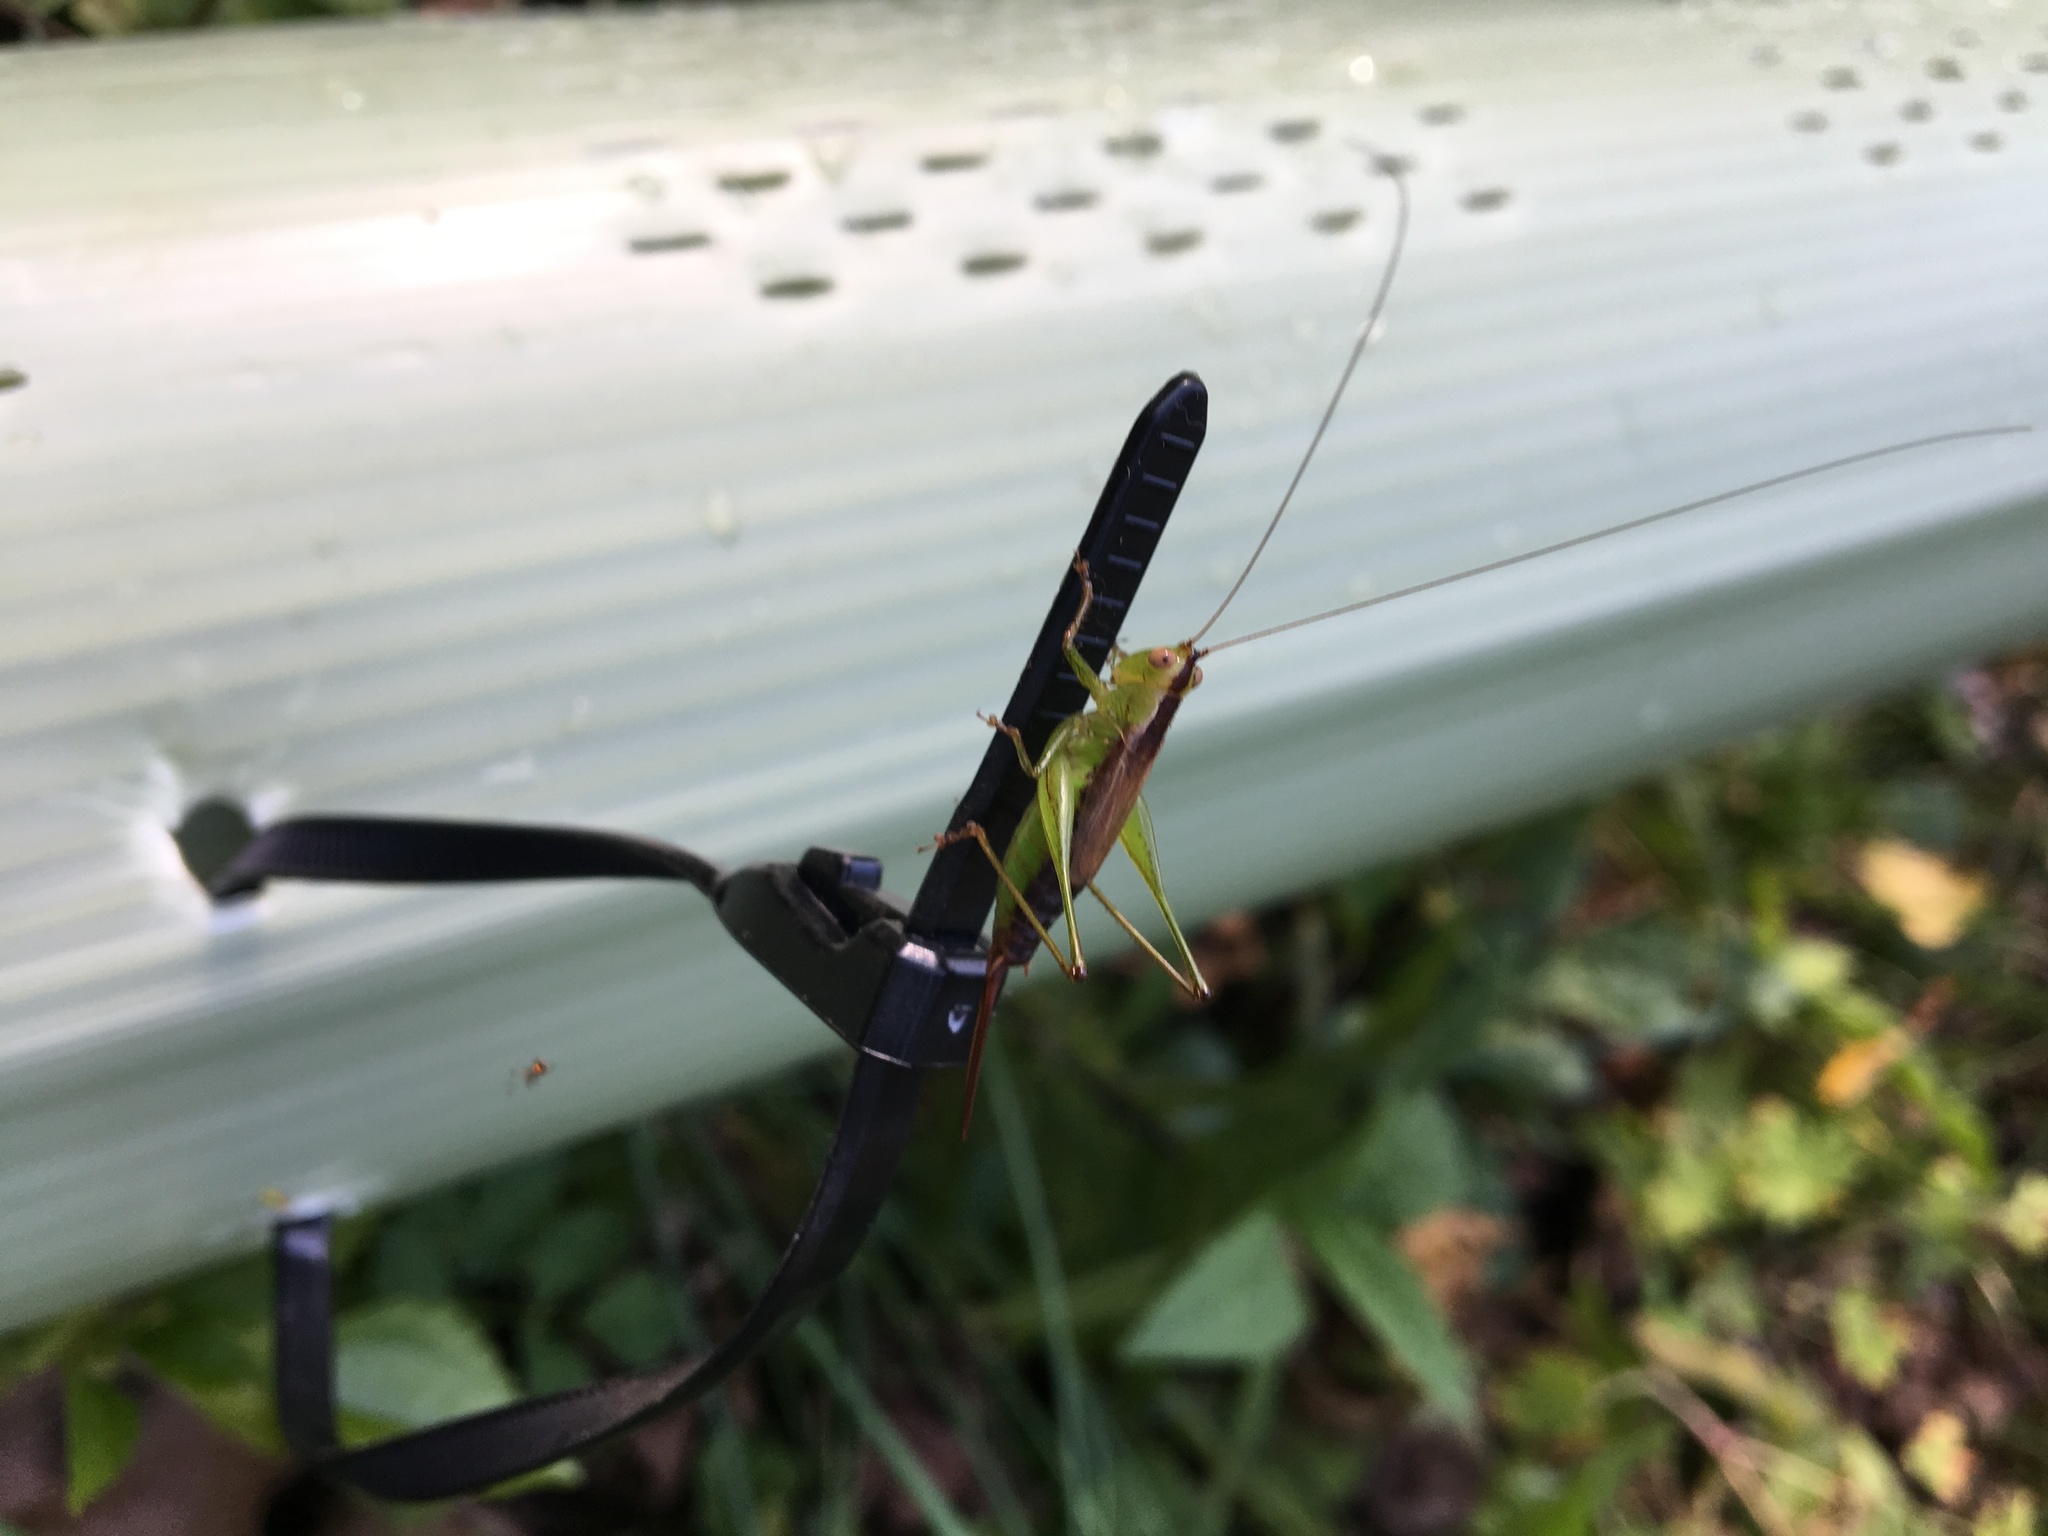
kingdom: Animalia
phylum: Arthropoda
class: Insecta
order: Orthoptera
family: Tettigoniidae
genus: Conocephalus
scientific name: Conocephalus brevipennis
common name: Short-winged meadow katydid
